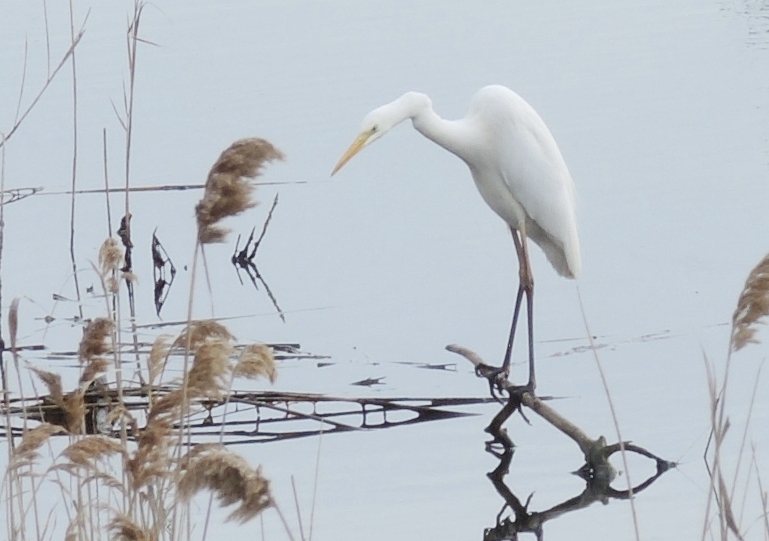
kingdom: Animalia
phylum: Chordata
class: Aves
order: Pelecaniformes
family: Ardeidae
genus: Ardea
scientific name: Ardea alba
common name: Great egret
